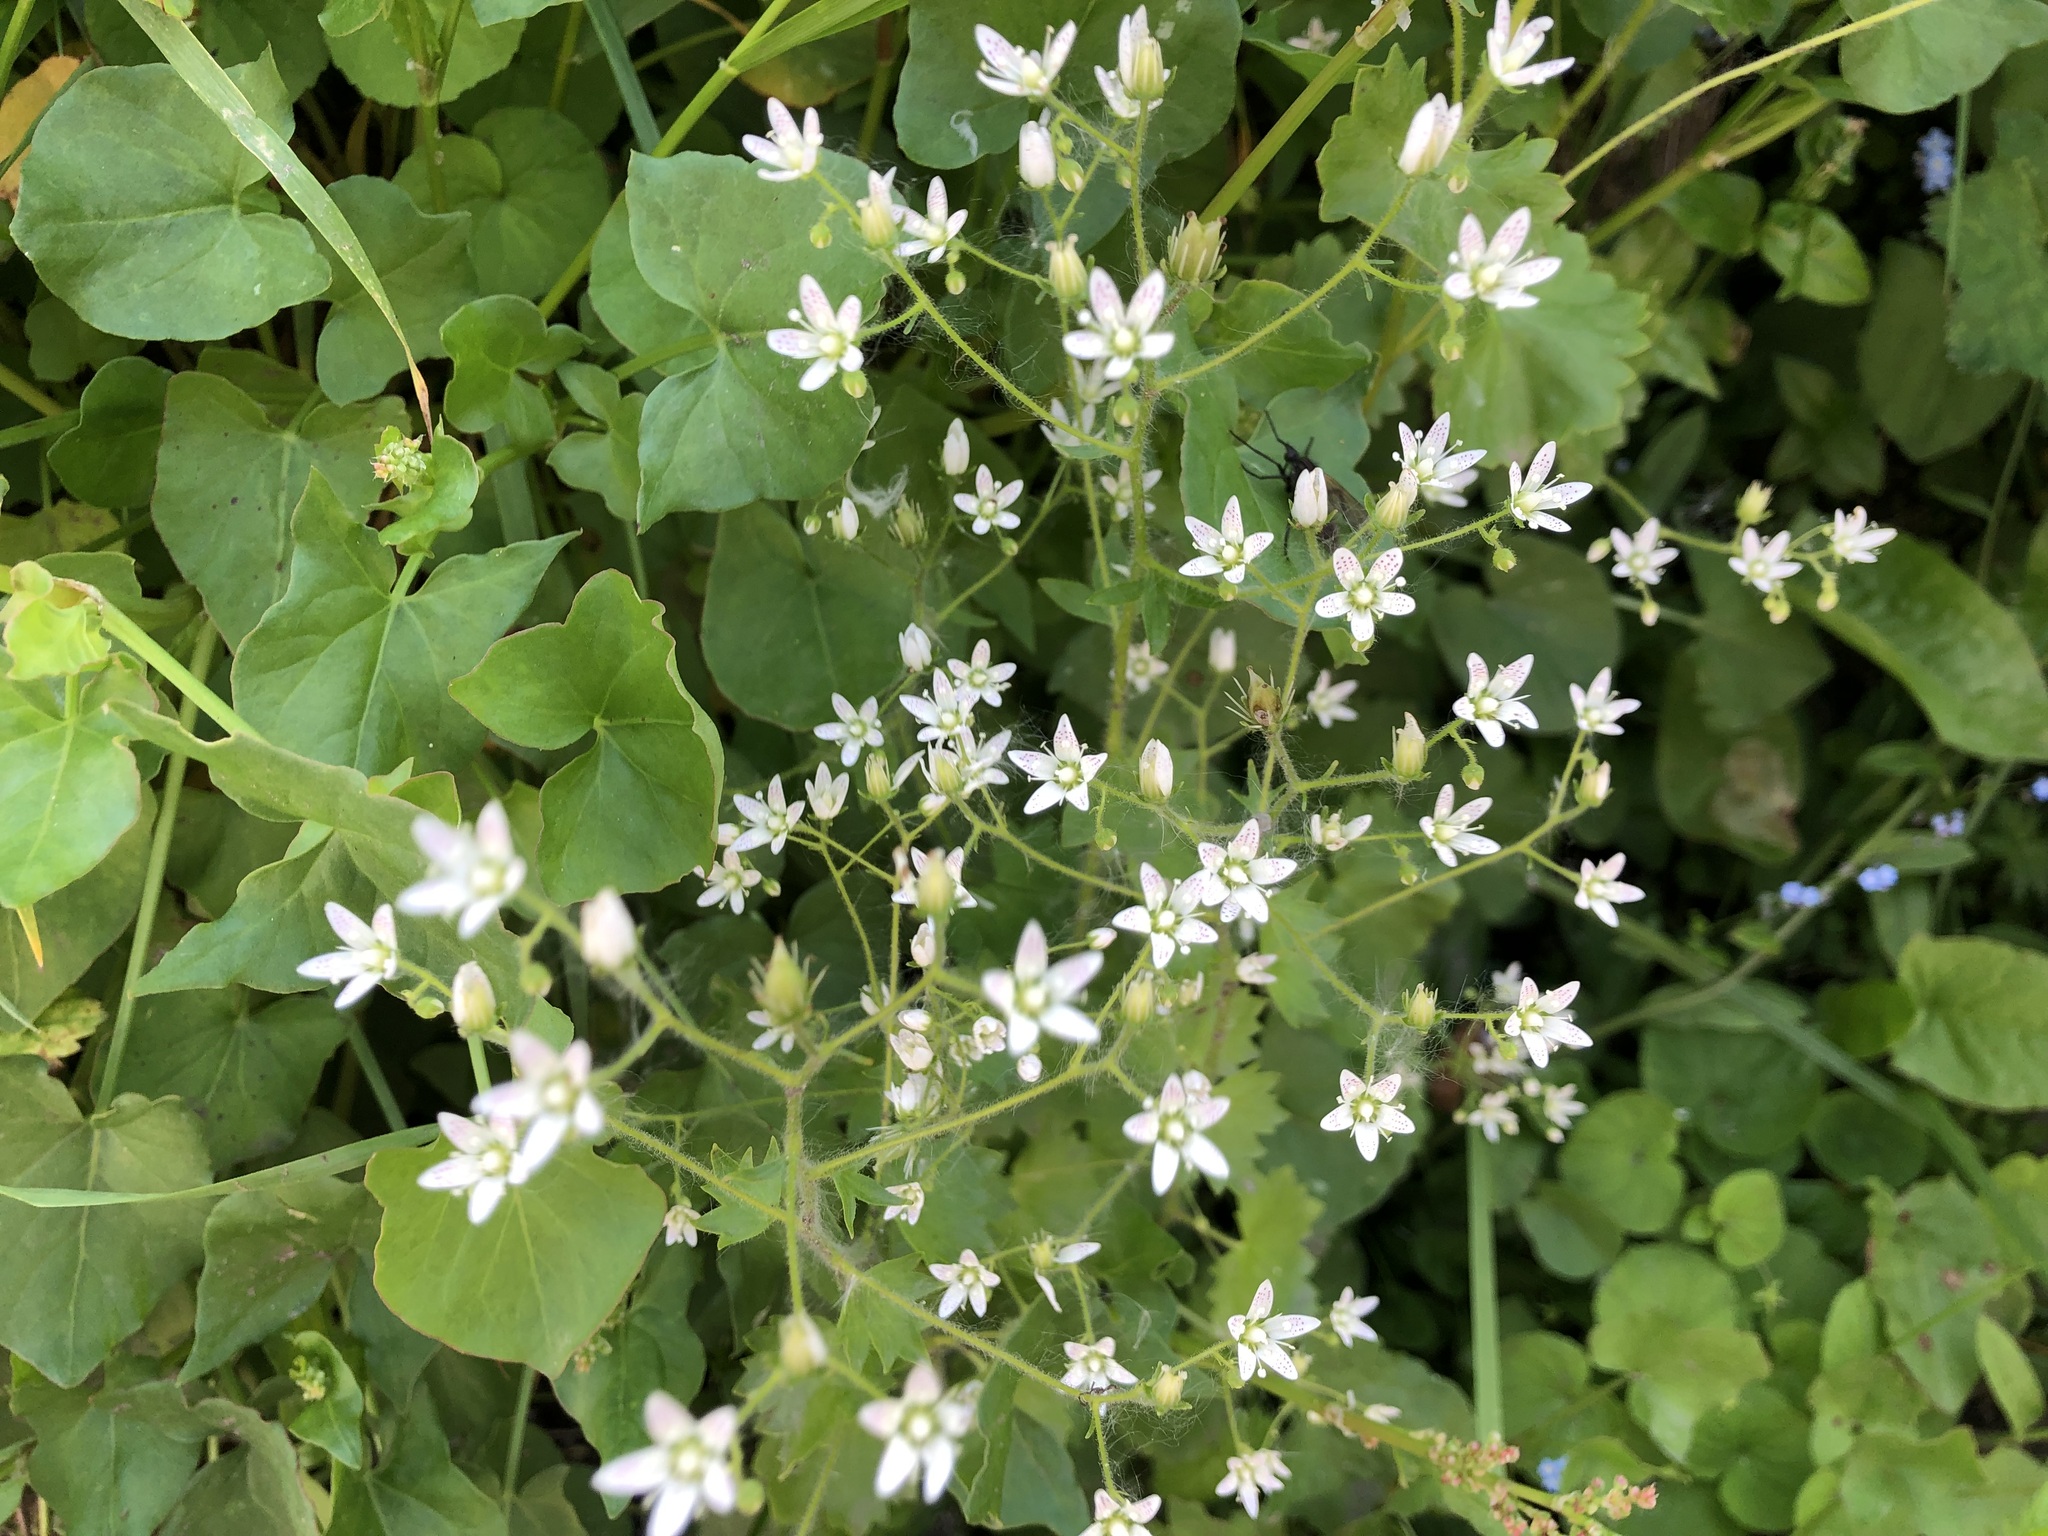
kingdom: Plantae
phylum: Tracheophyta
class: Magnoliopsida
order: Saxifragales
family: Saxifragaceae
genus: Saxifraga
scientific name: Saxifraga rotundifolia
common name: Round-leaved saxifrage
